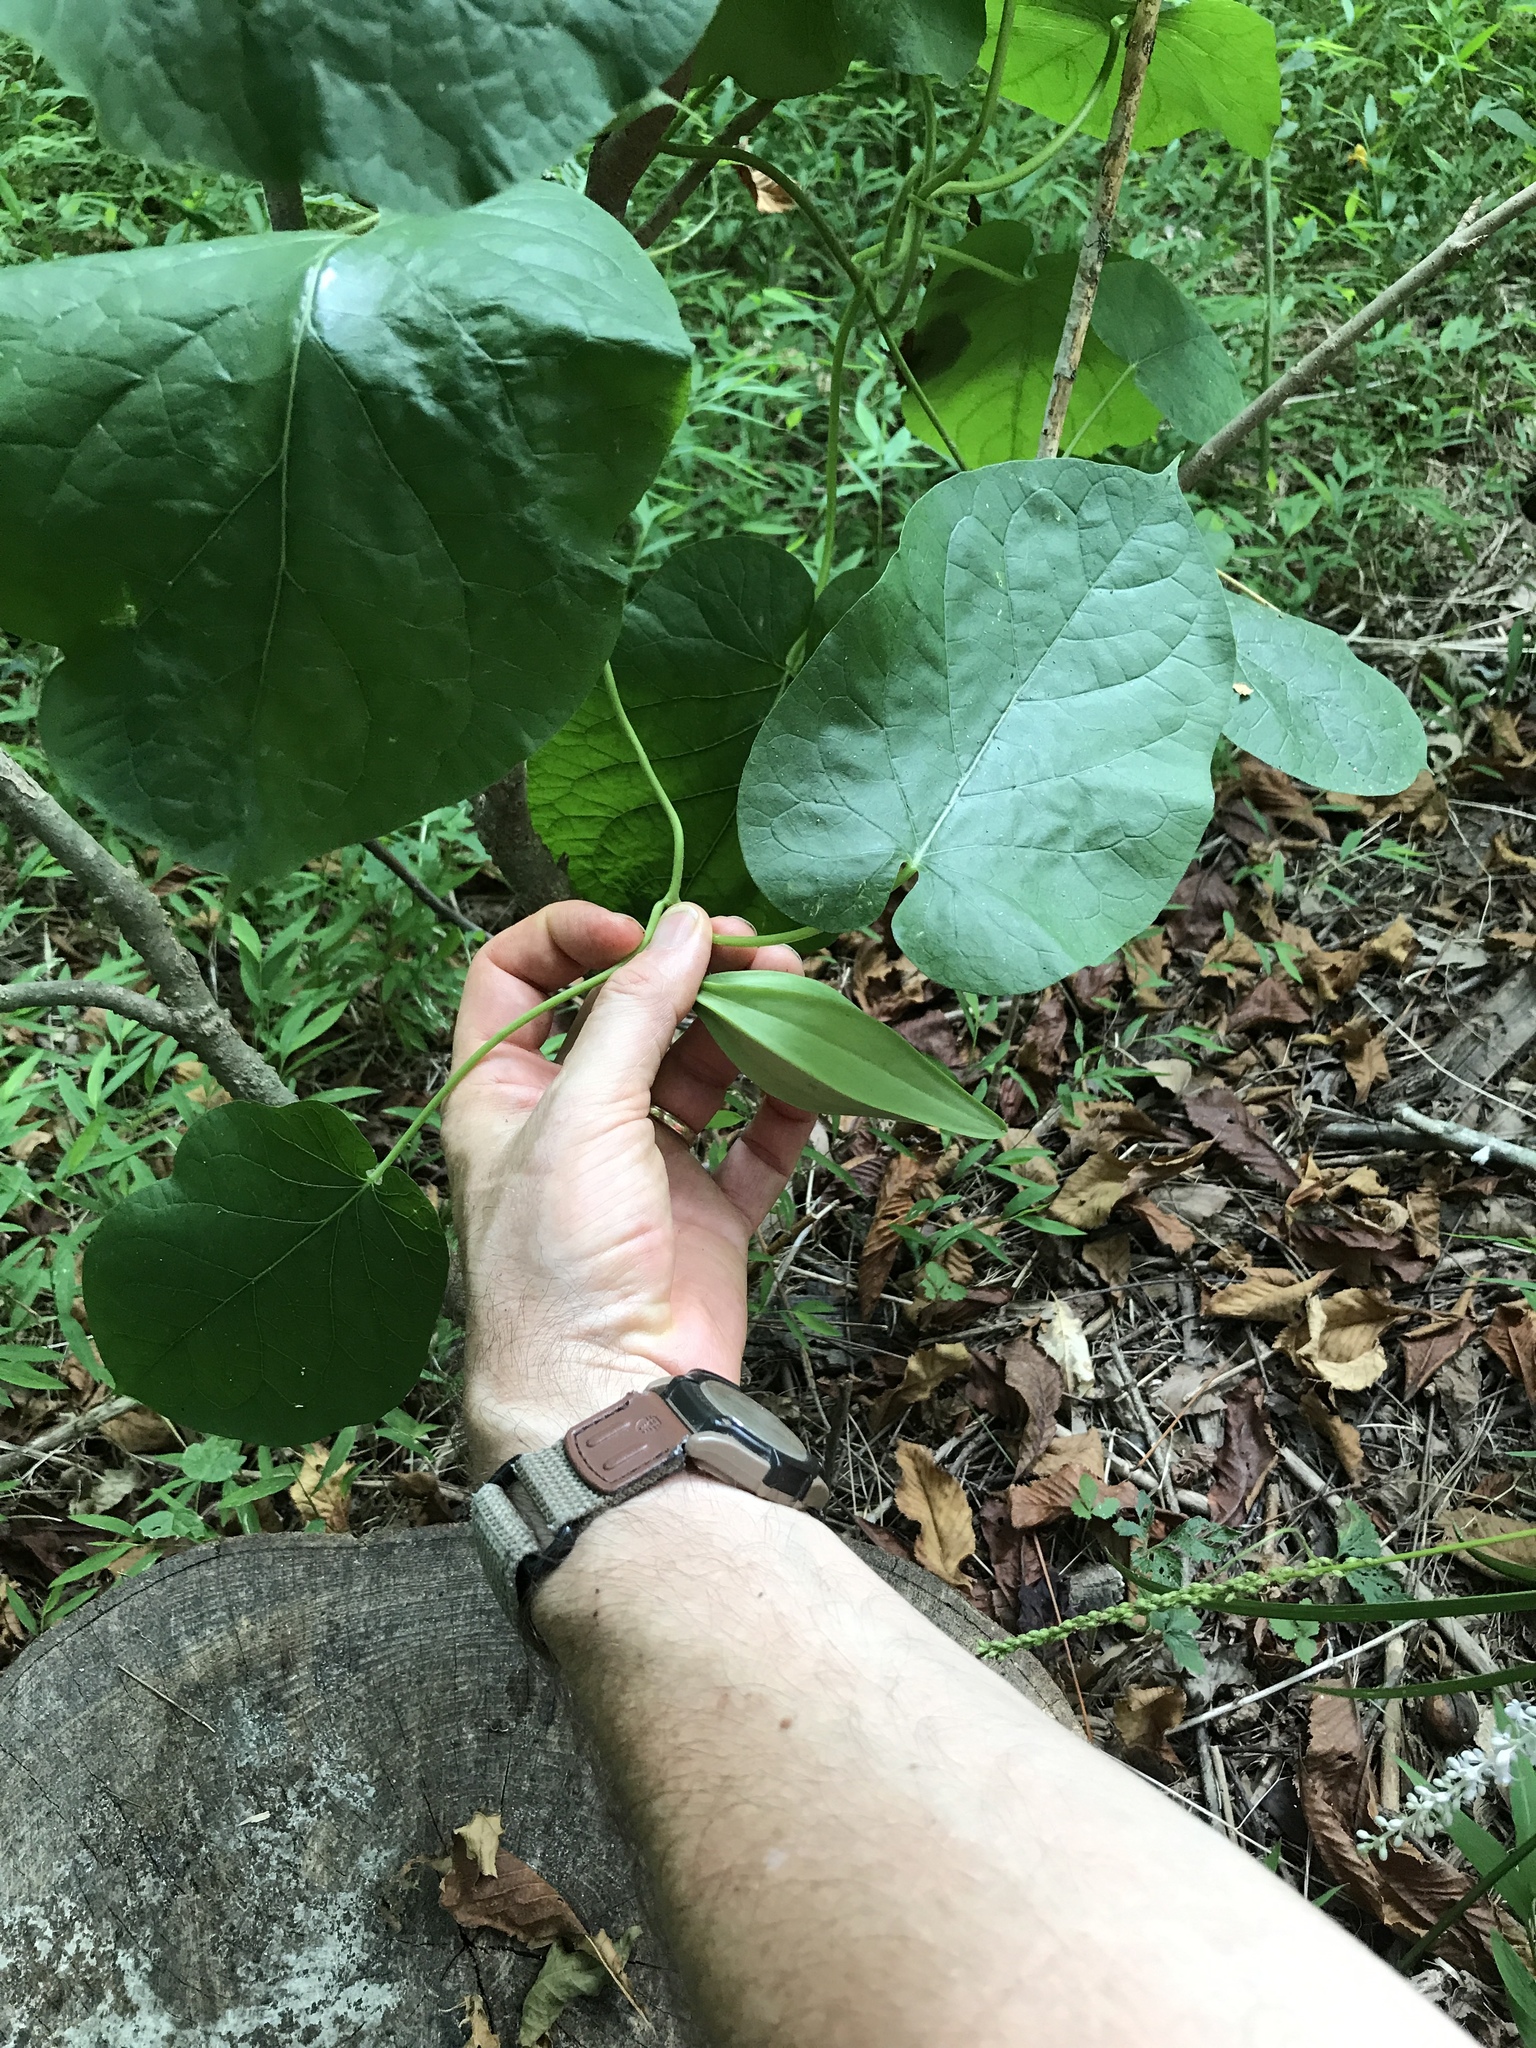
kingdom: Plantae
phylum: Tracheophyta
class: Magnoliopsida
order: Gentianales
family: Apocynaceae
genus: Gonolobus
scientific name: Gonolobus suberosus
